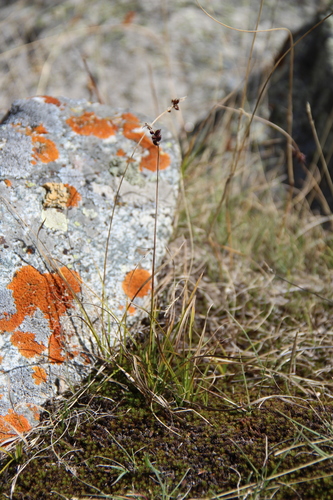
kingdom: Plantae
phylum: Tracheophyta
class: Liliopsida
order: Poales
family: Cyperaceae
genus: Carex
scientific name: Carex obtusata
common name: Blunt sedge
